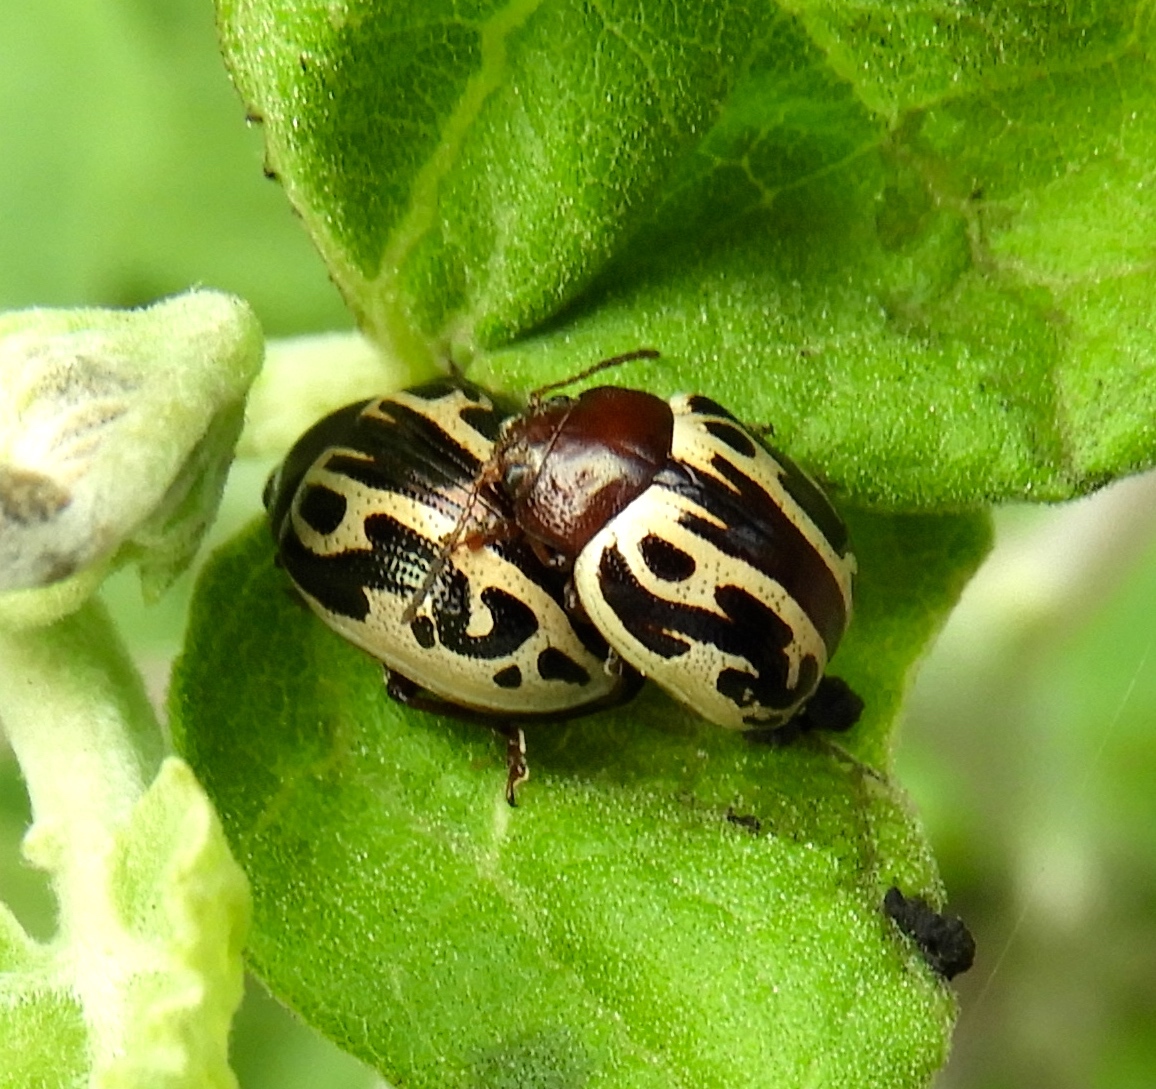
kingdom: Animalia
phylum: Arthropoda
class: Insecta
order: Coleoptera
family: Chrysomelidae
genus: Calligrapha
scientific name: Calligrapha
